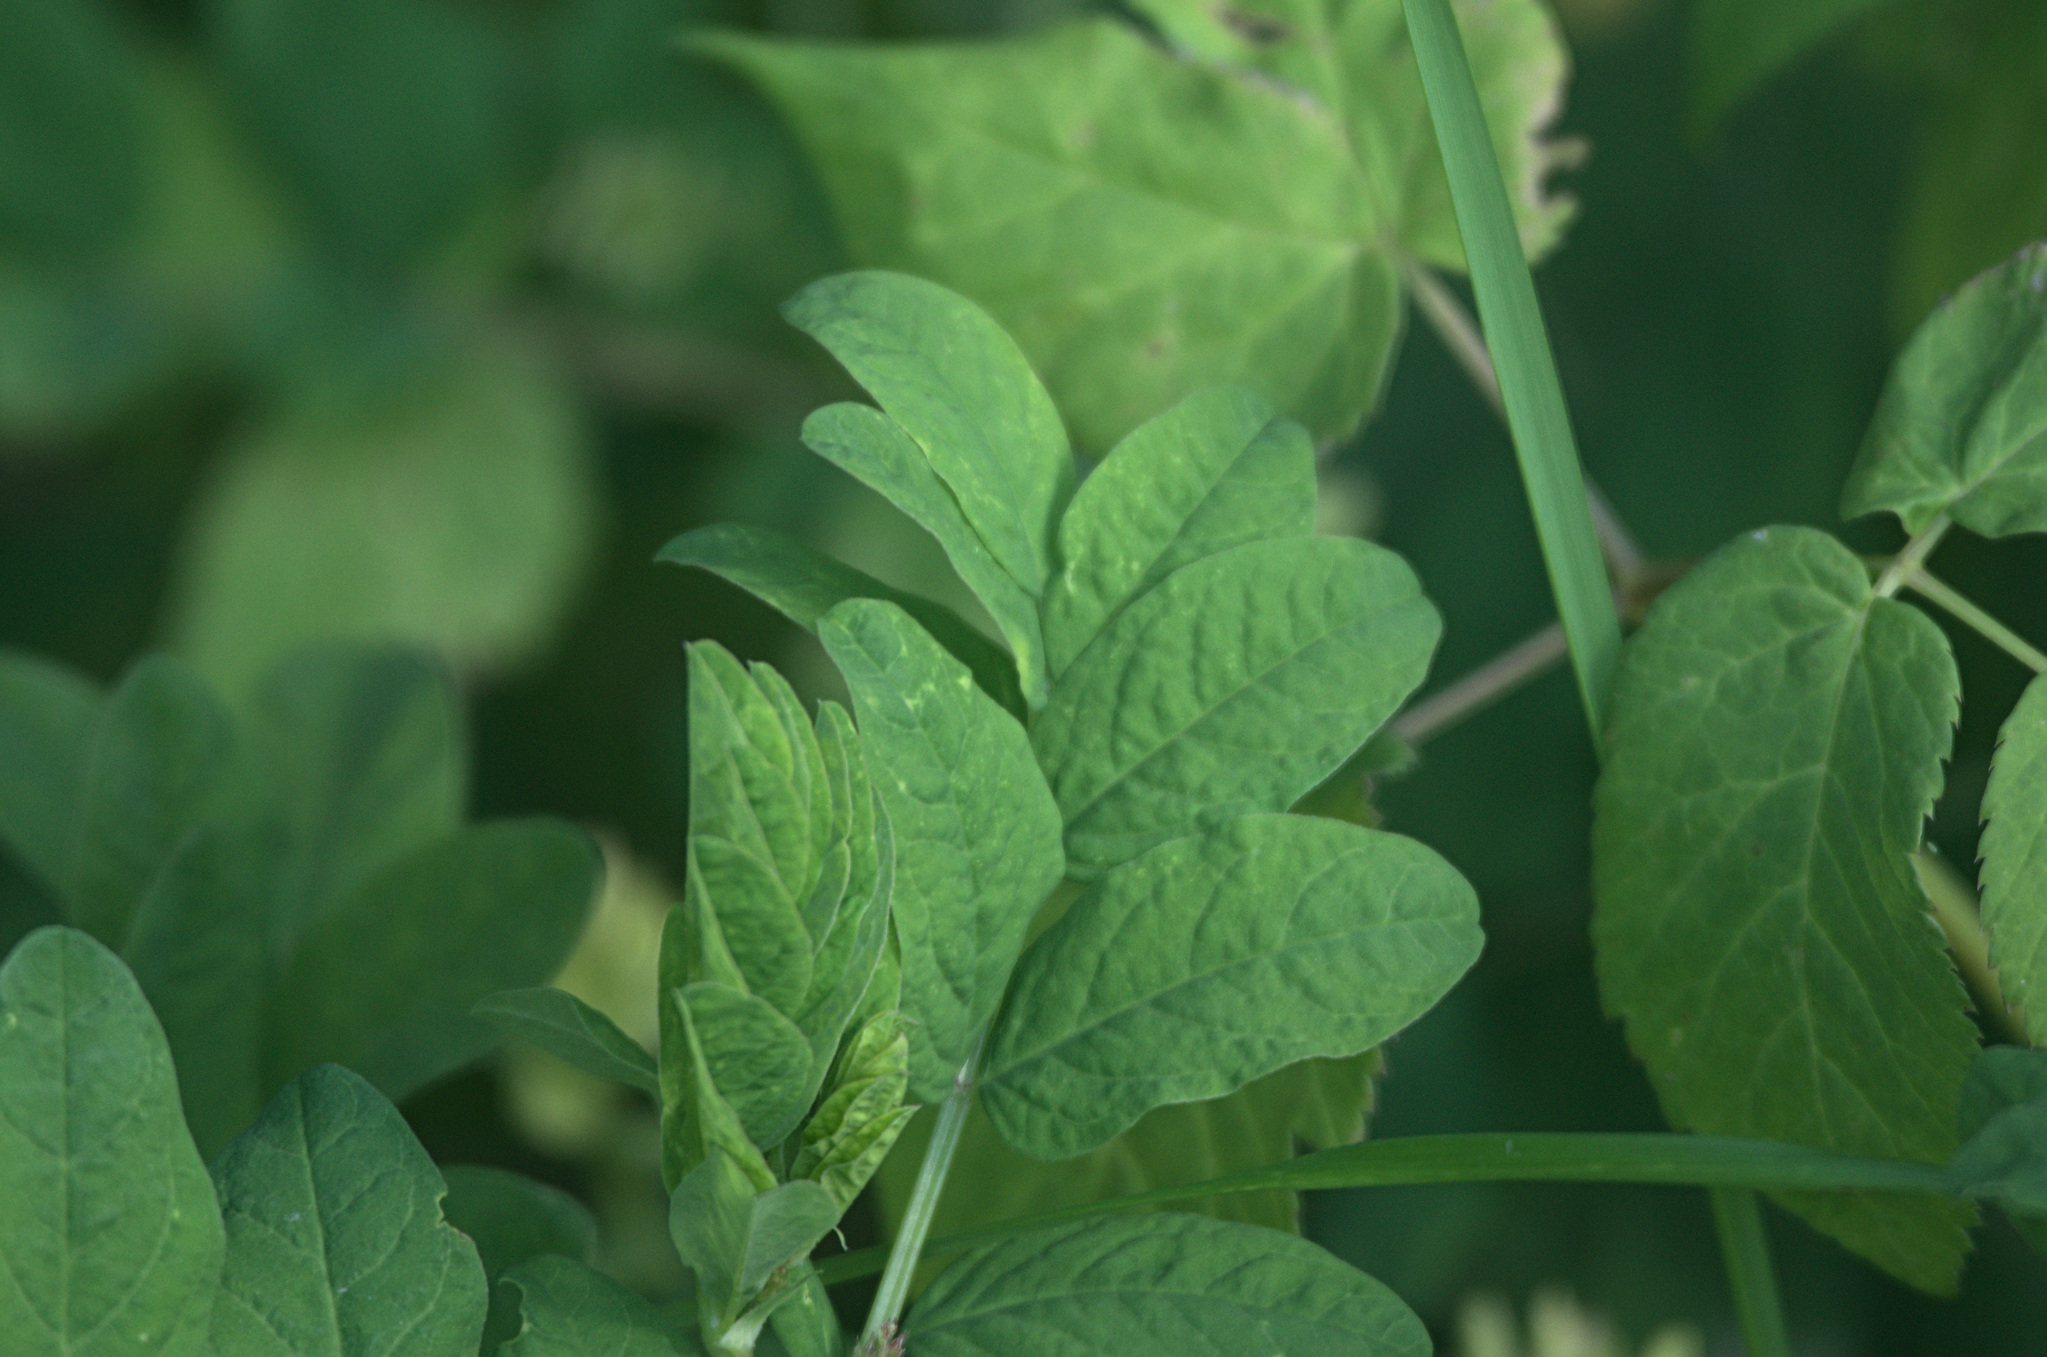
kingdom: Plantae
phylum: Tracheophyta
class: Magnoliopsida
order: Fabales
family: Fabaceae
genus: Astragalus
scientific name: Astragalus glycyphyllos
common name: Wild liquorice
